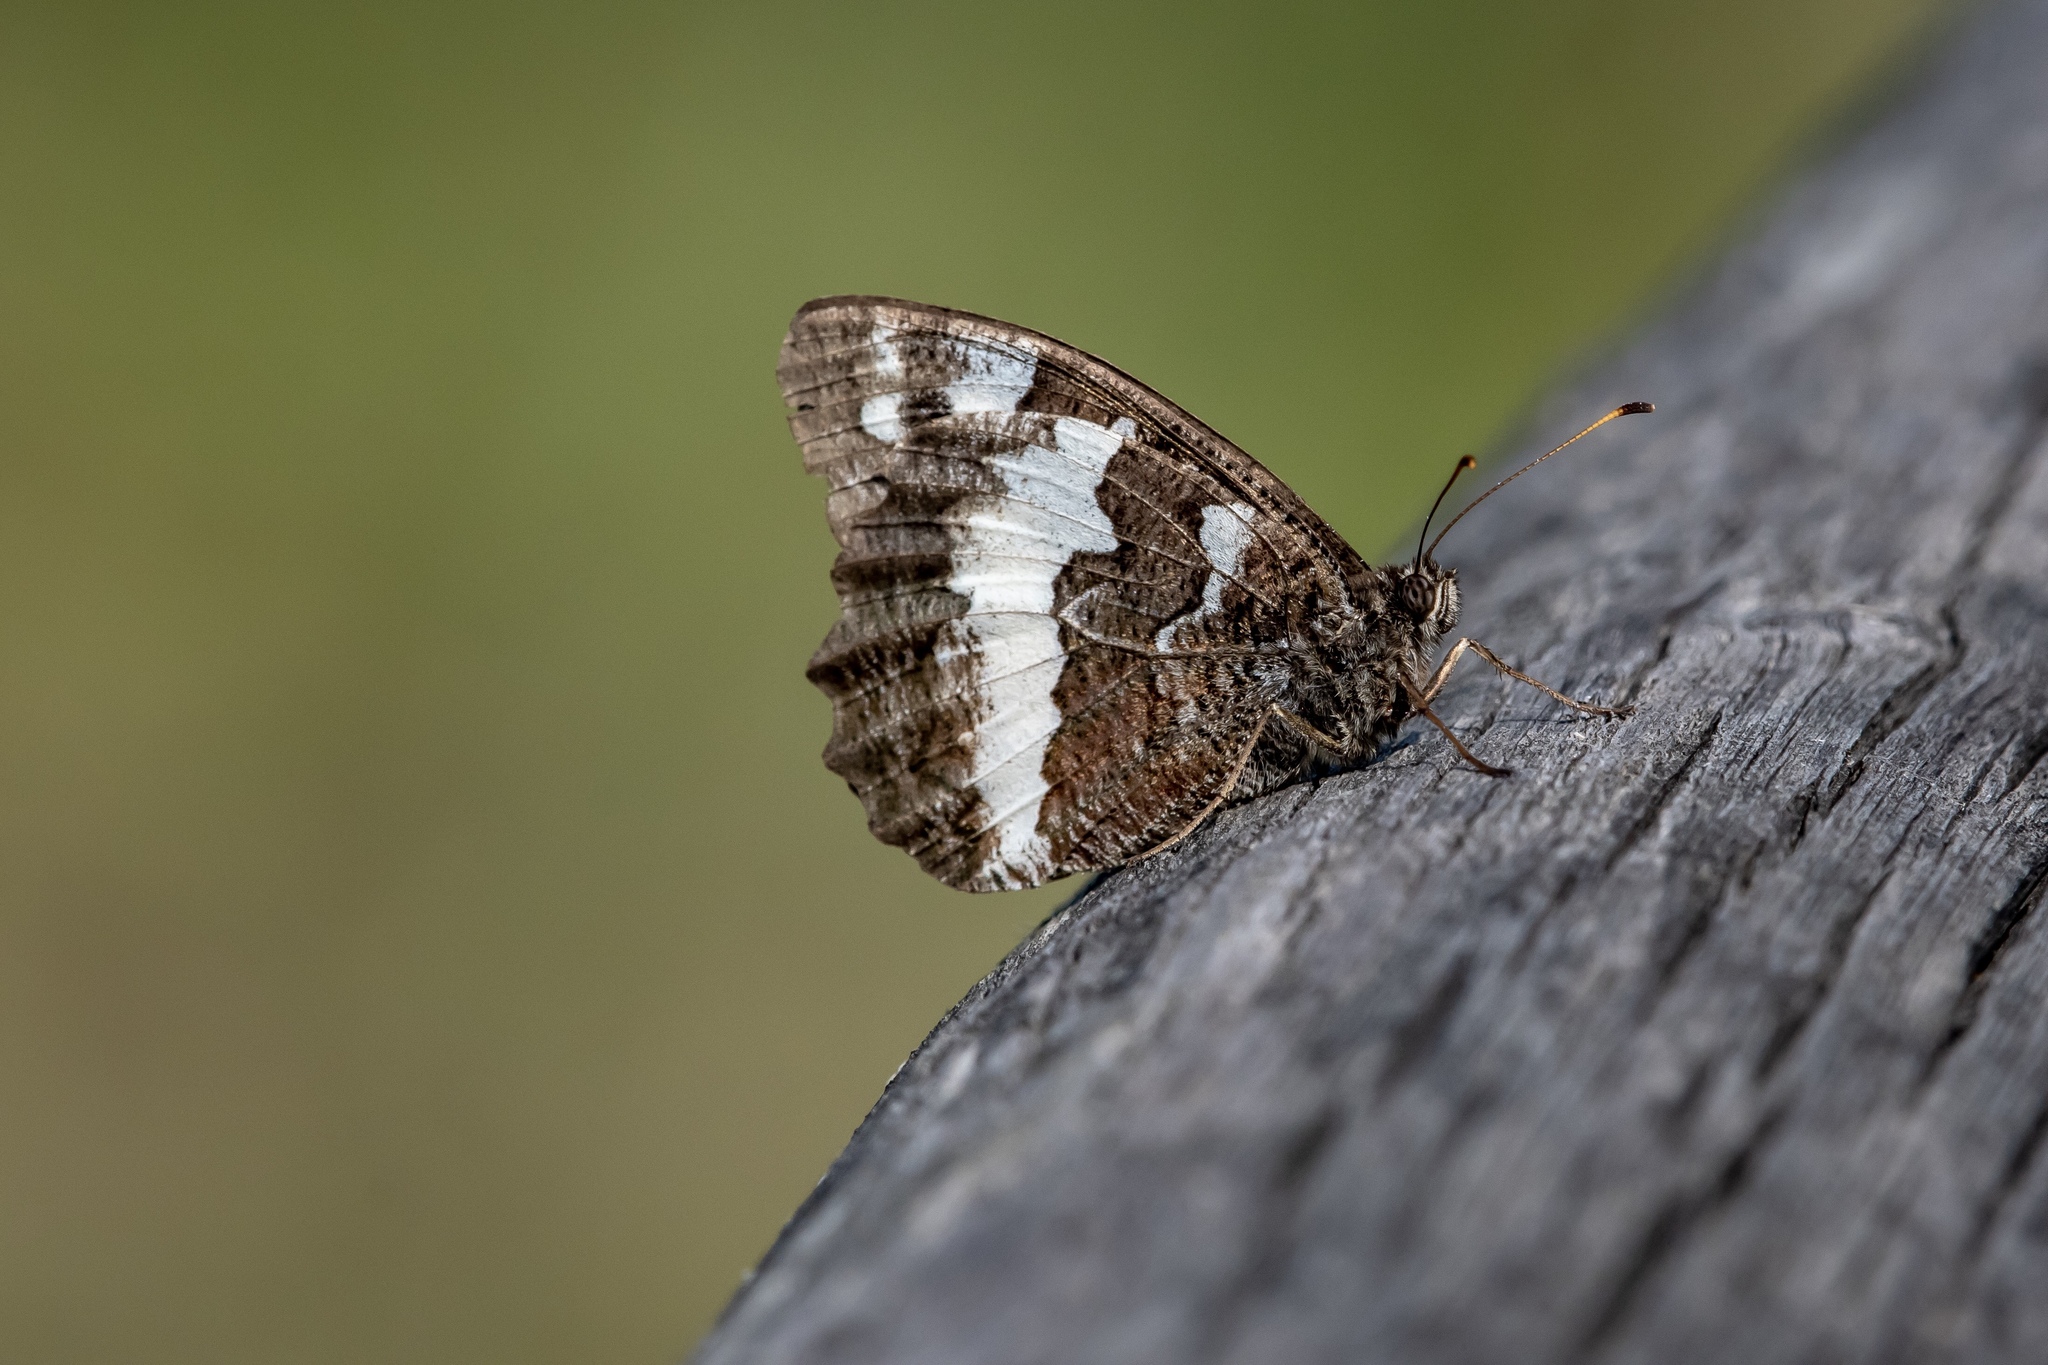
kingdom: Animalia
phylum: Arthropoda
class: Insecta
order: Lepidoptera
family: Lycaenidae
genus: Loweia
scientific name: Loweia tityrus
